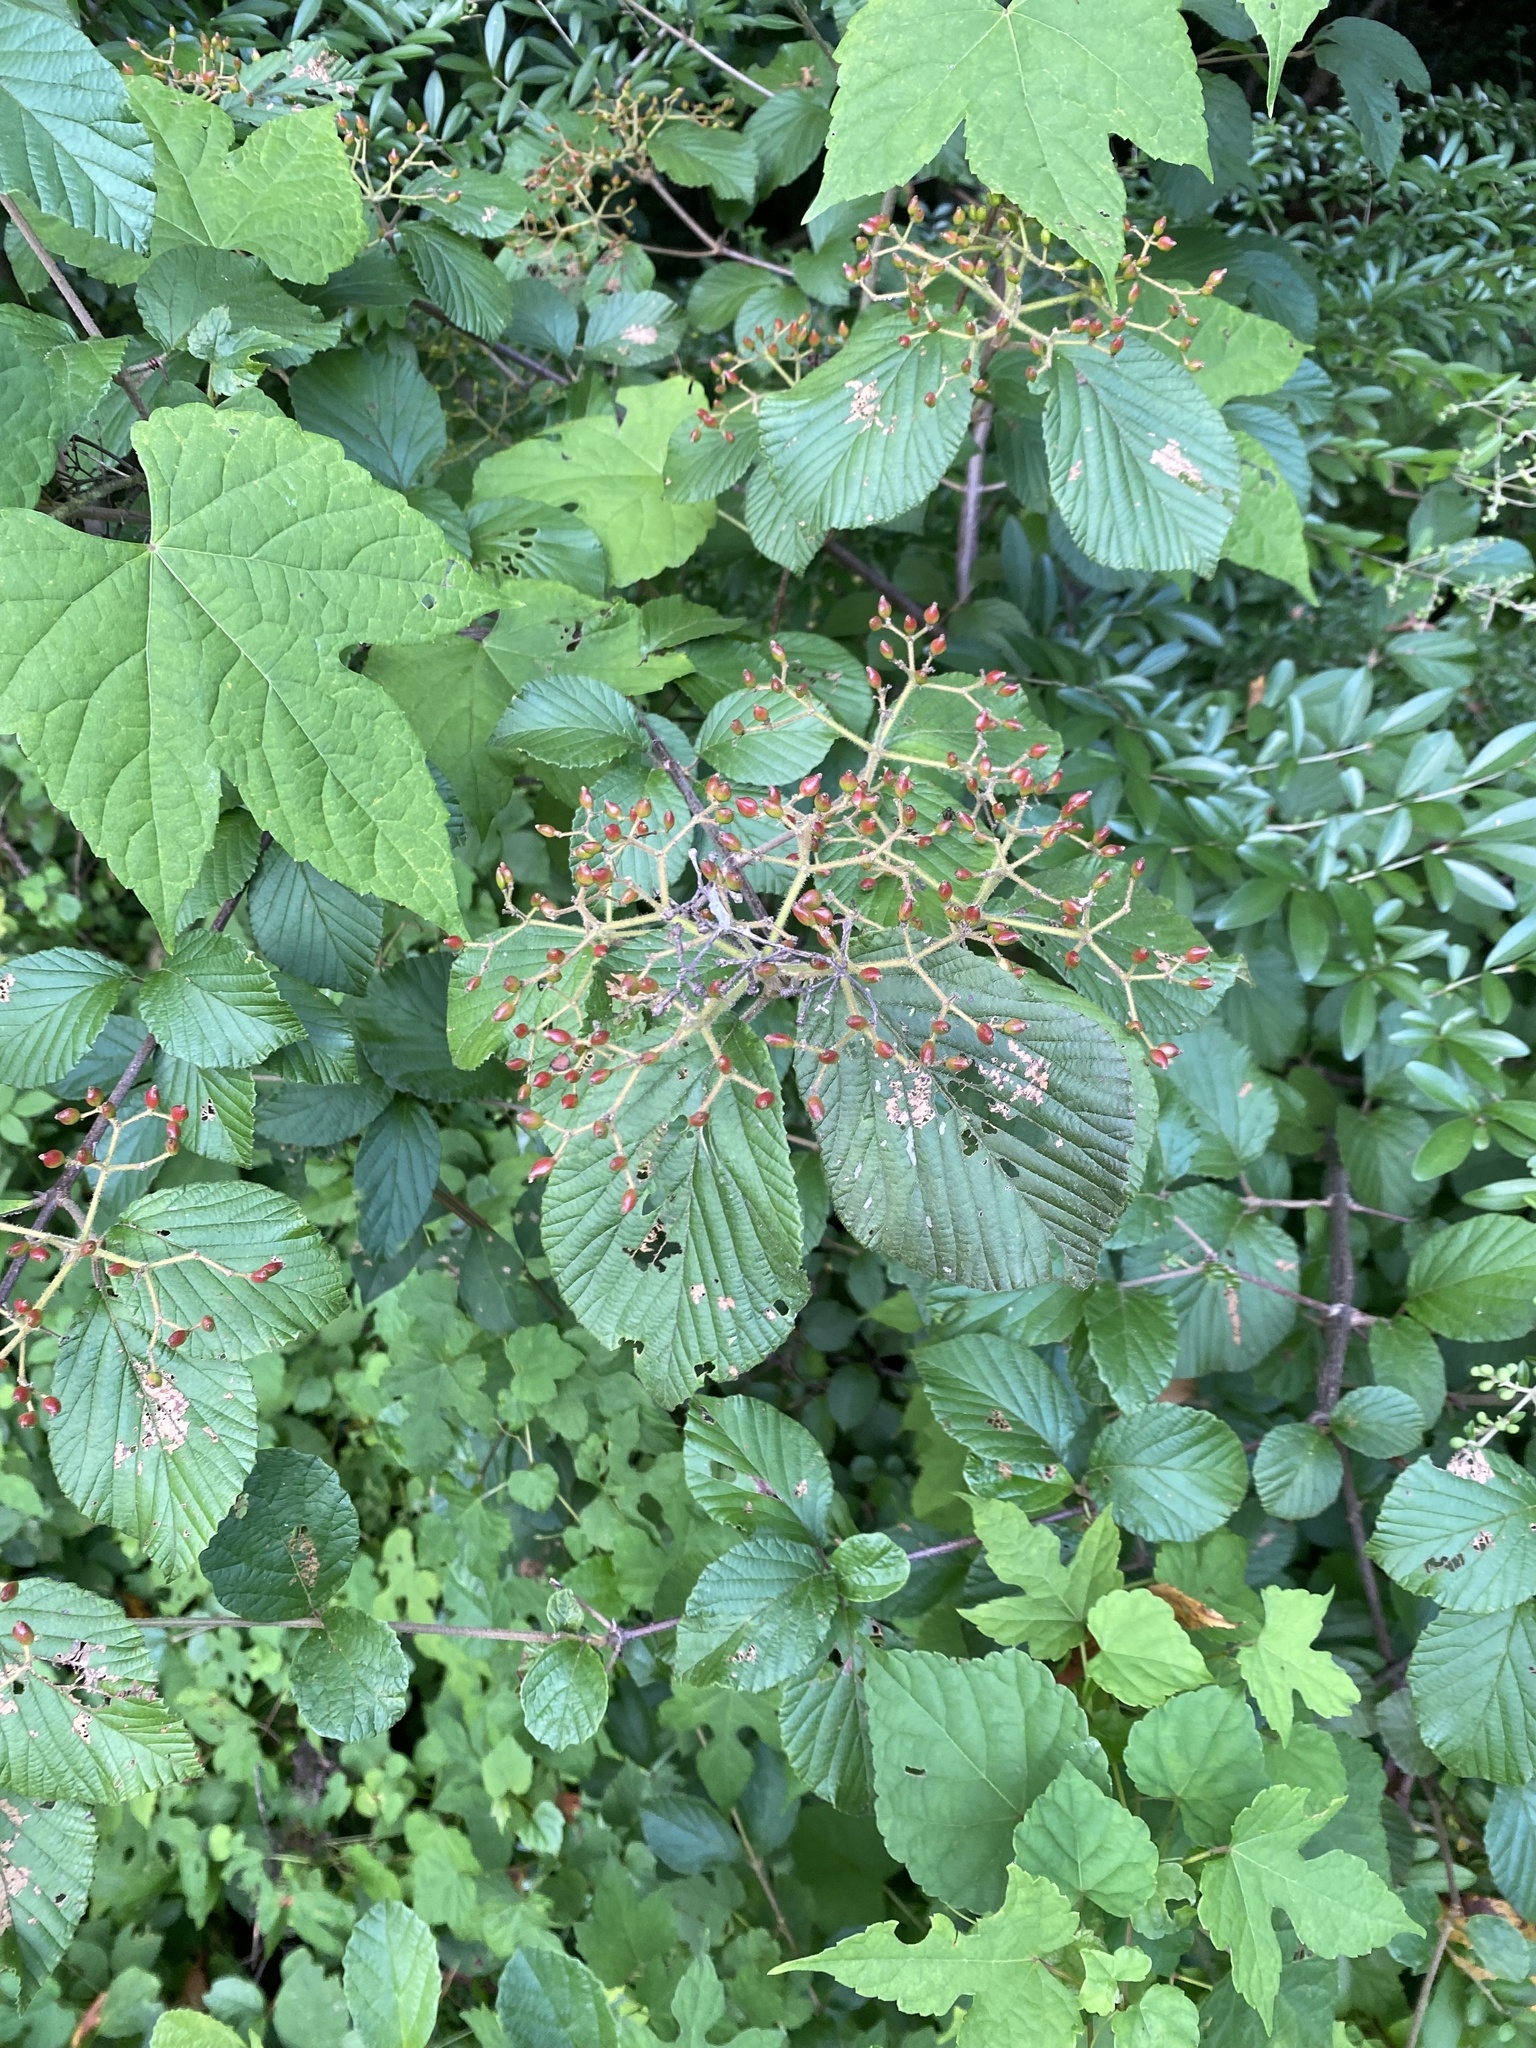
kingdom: Plantae
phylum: Tracheophyta
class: Magnoliopsida
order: Dipsacales
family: Viburnaceae
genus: Viburnum
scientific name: Viburnum dilatatum
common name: Linden arrowwood
